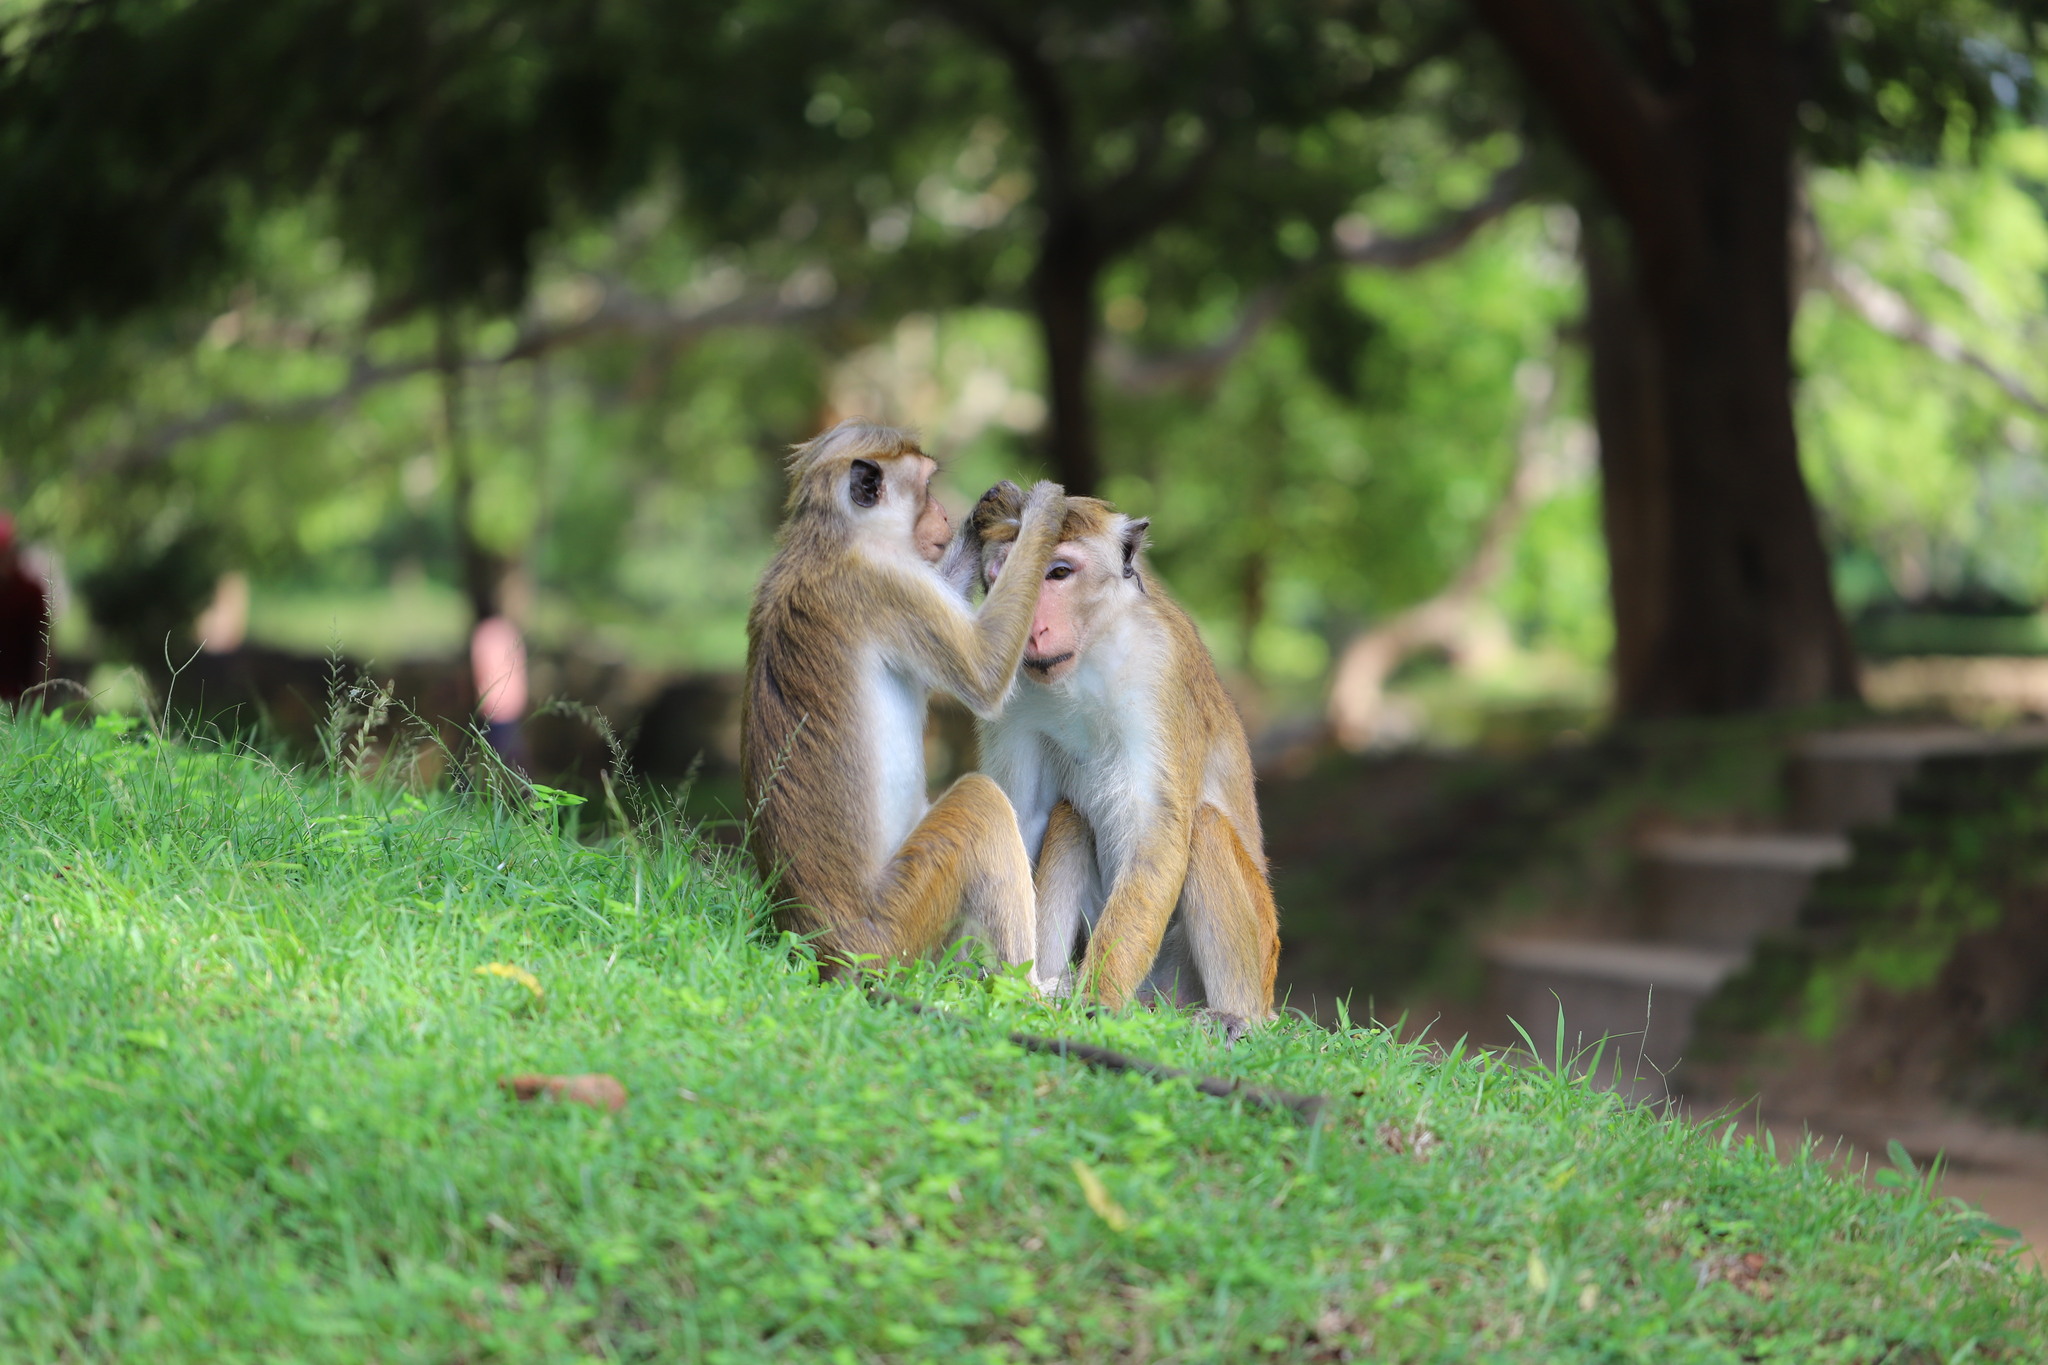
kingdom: Animalia
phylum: Chordata
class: Mammalia
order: Primates
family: Cercopithecidae
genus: Macaca
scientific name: Macaca sinica
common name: Toque macaque
